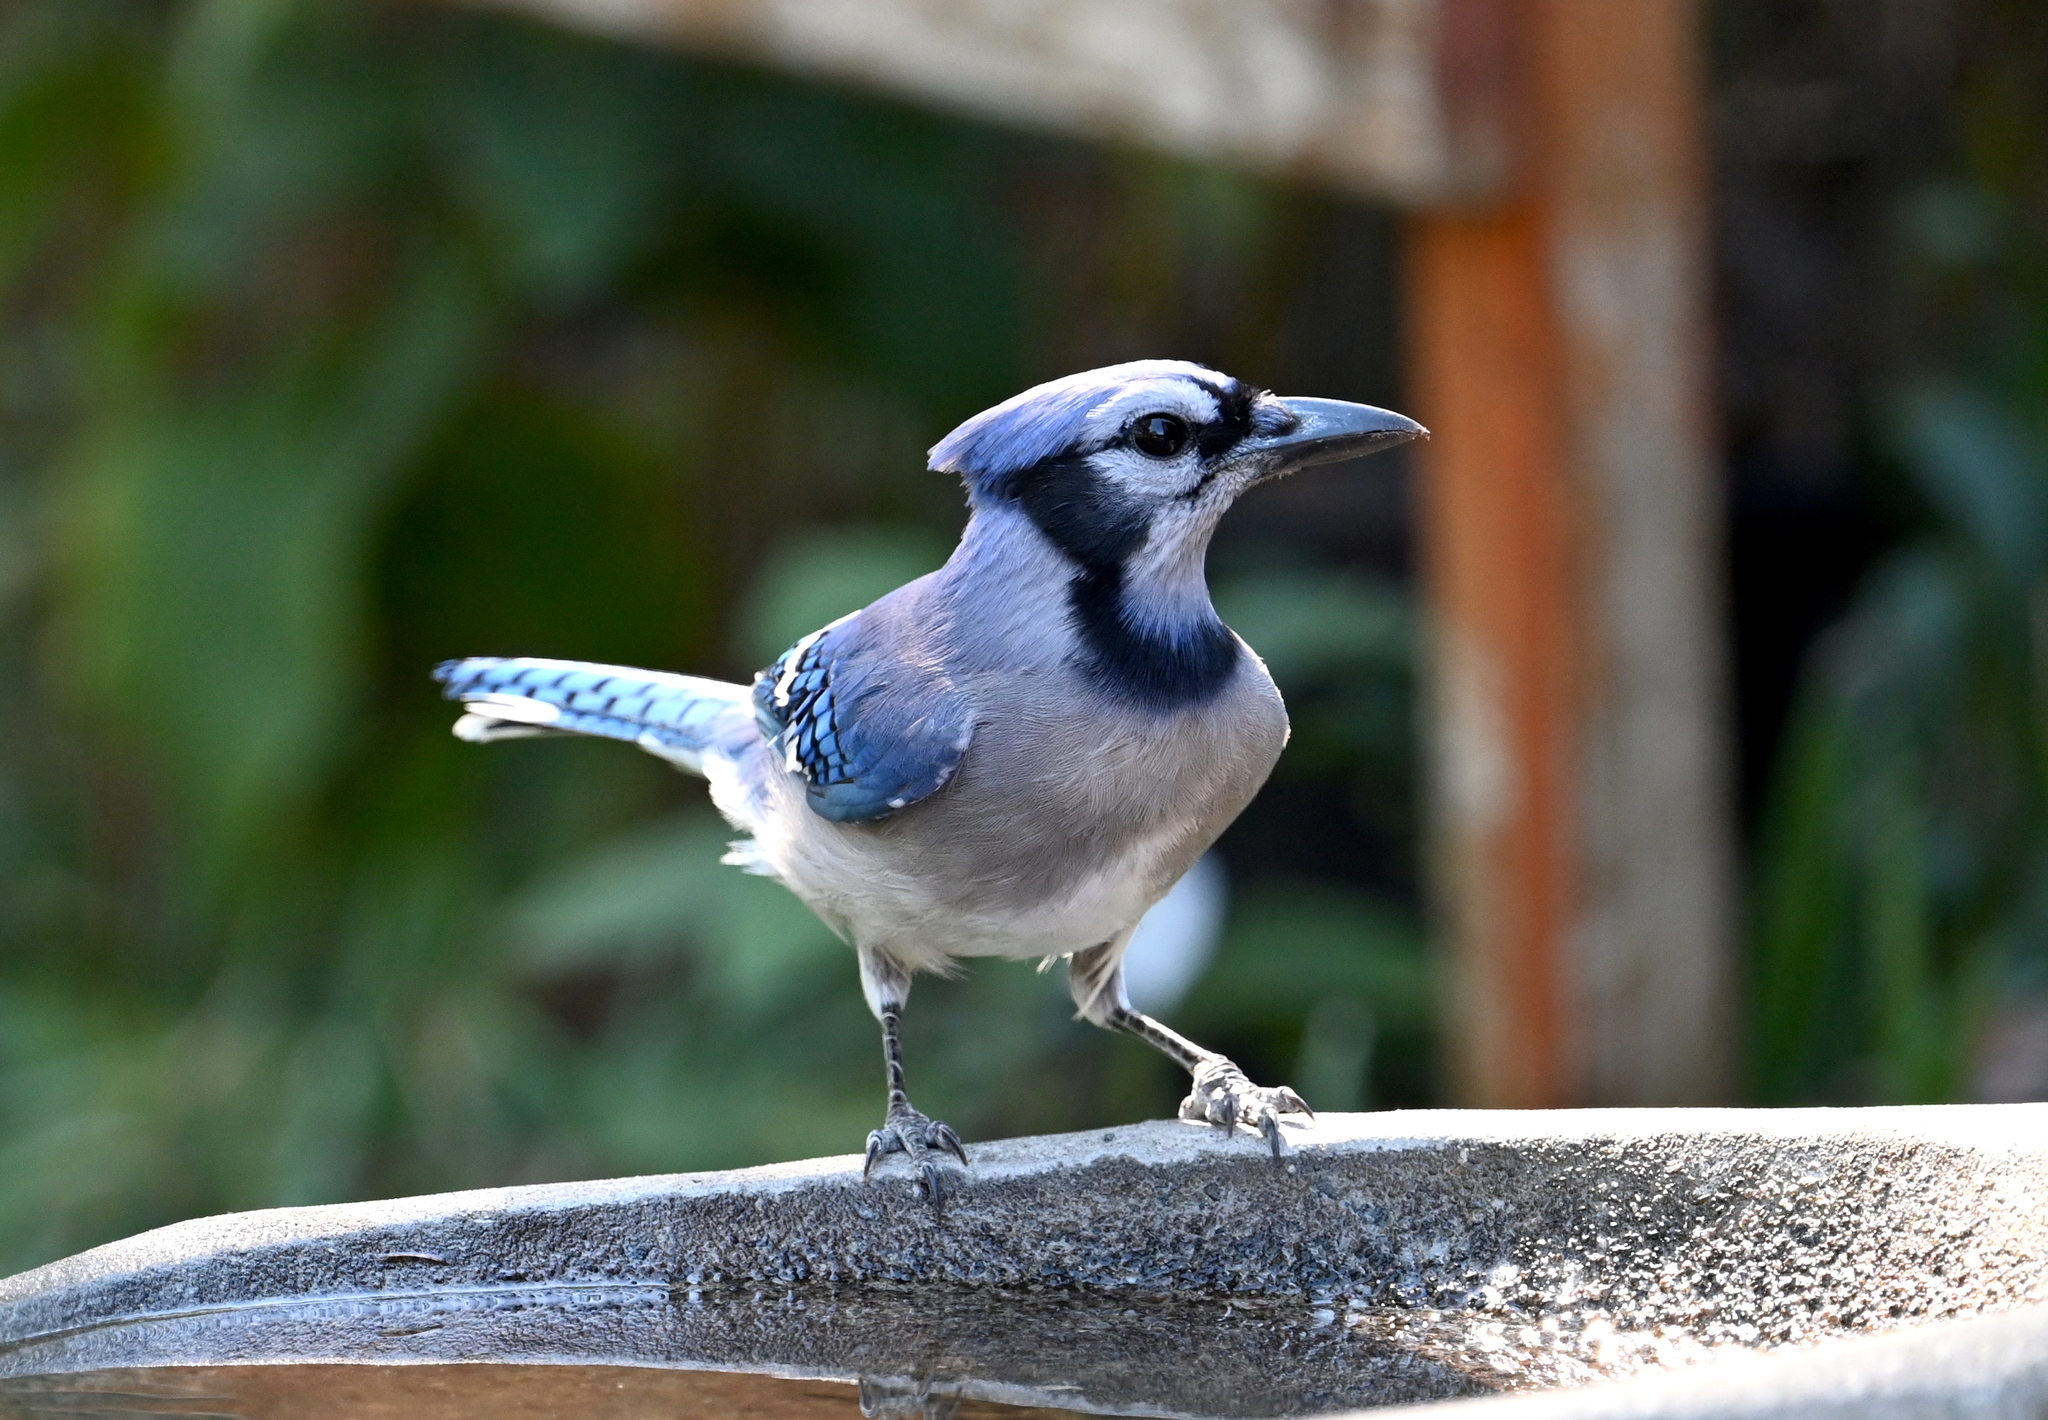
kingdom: Animalia
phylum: Chordata
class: Aves
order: Passeriformes
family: Corvidae
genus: Cyanocitta
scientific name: Cyanocitta cristata
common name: Blue jay
